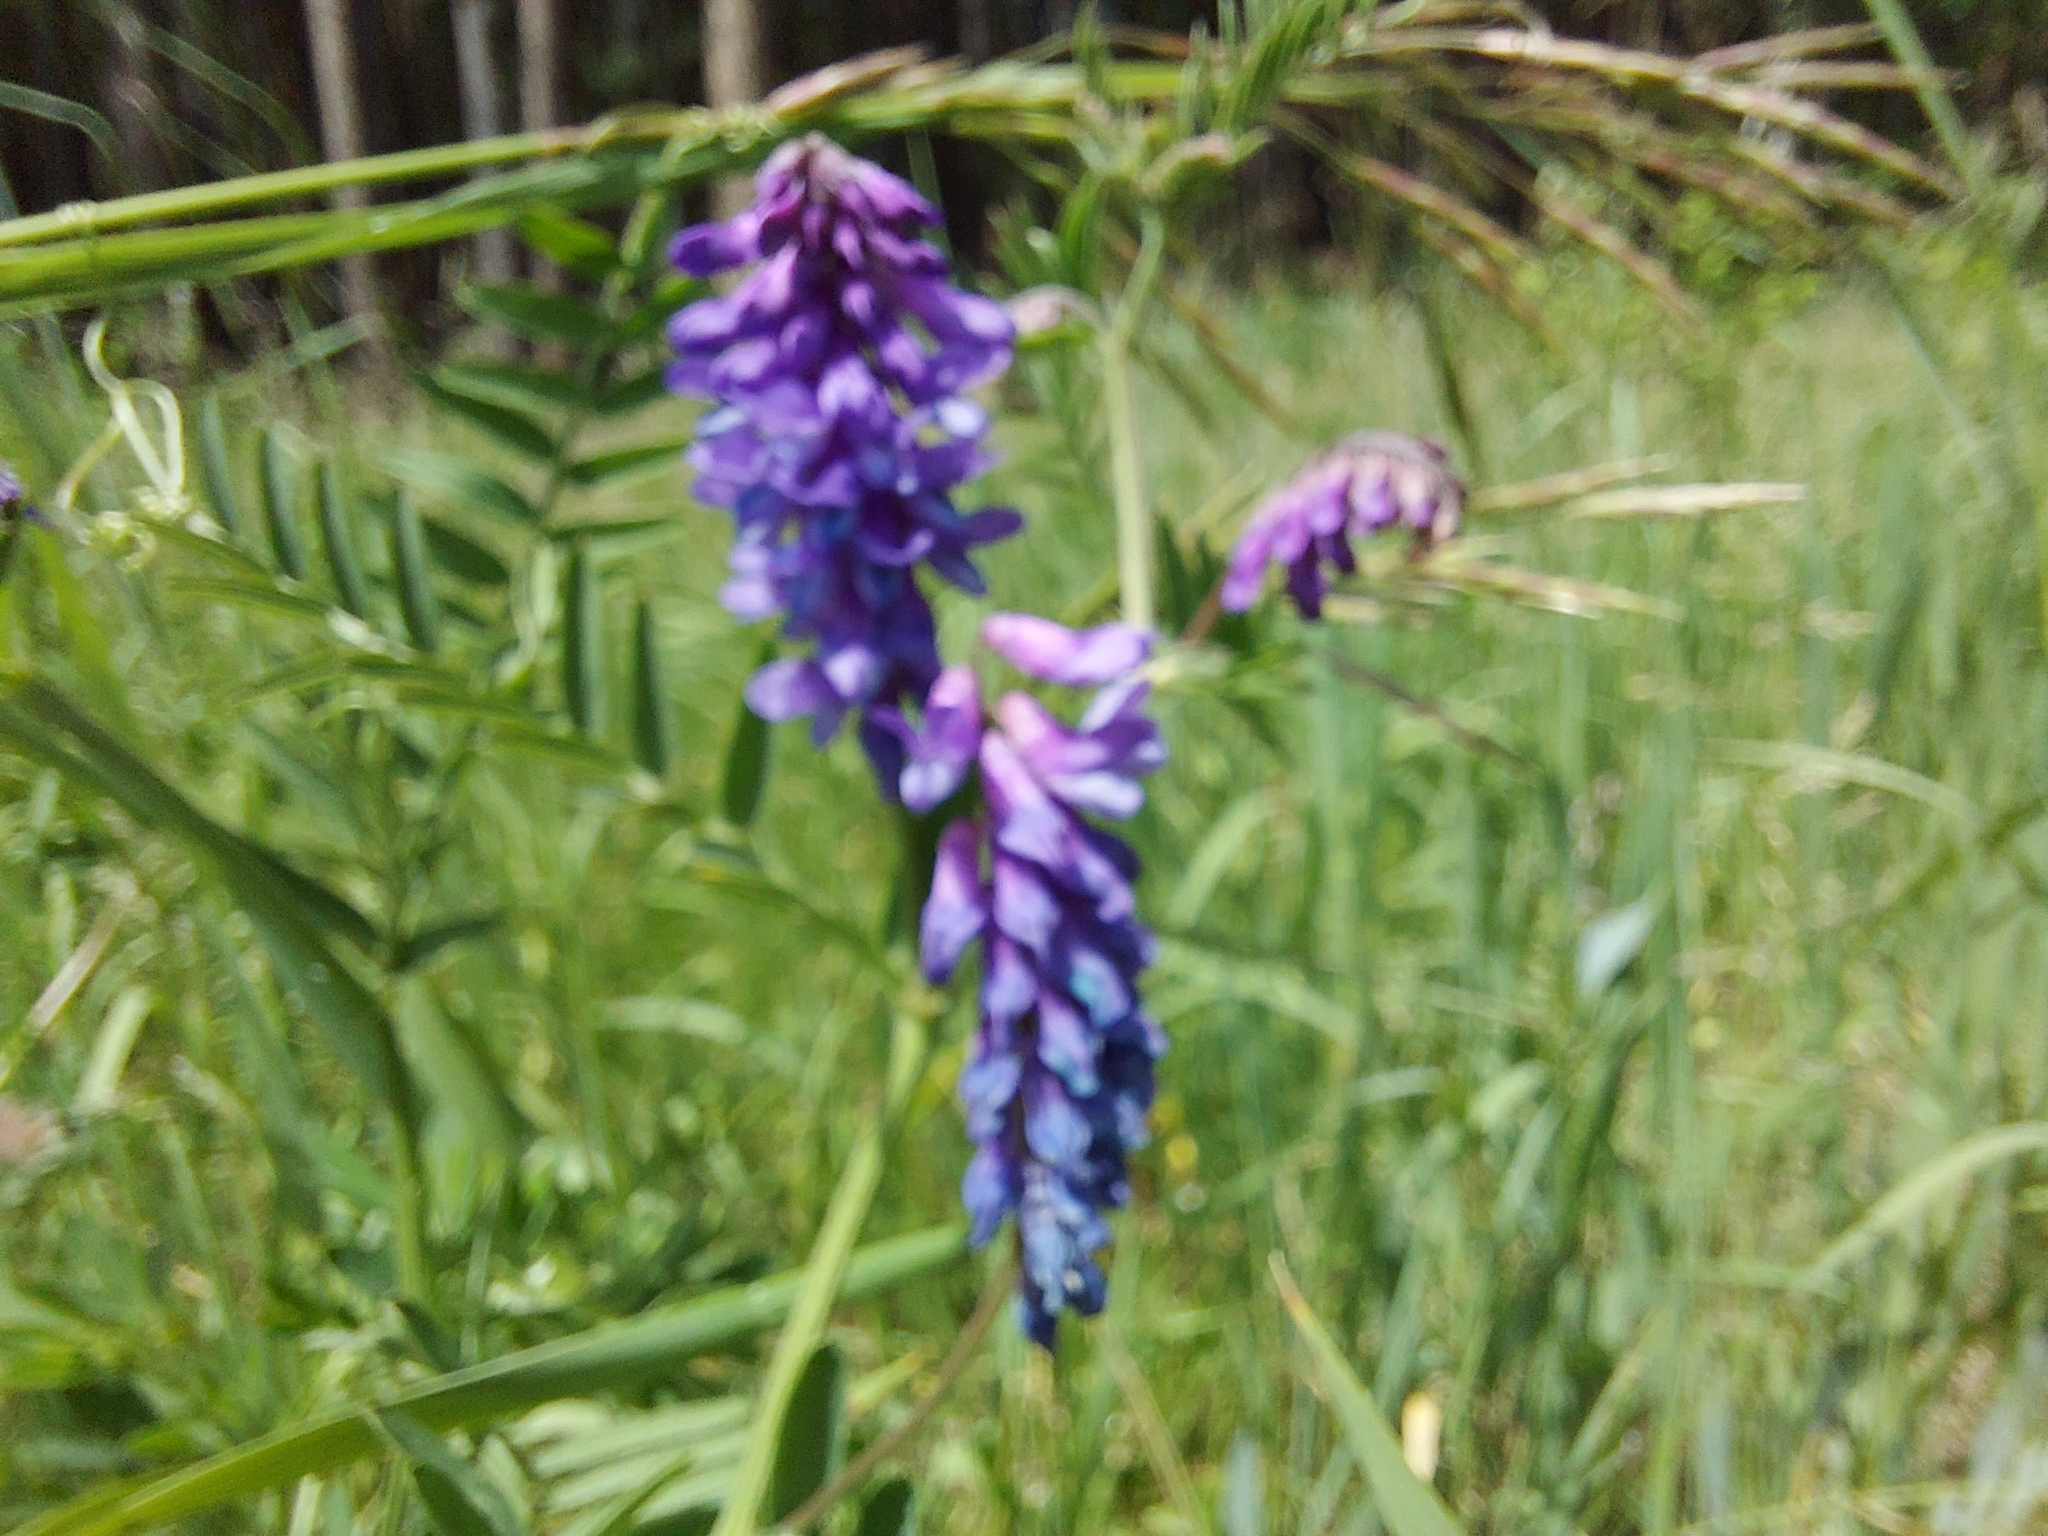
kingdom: Plantae
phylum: Tracheophyta
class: Magnoliopsida
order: Fabales
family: Fabaceae
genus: Vicia
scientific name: Vicia cracca
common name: Bird vetch
